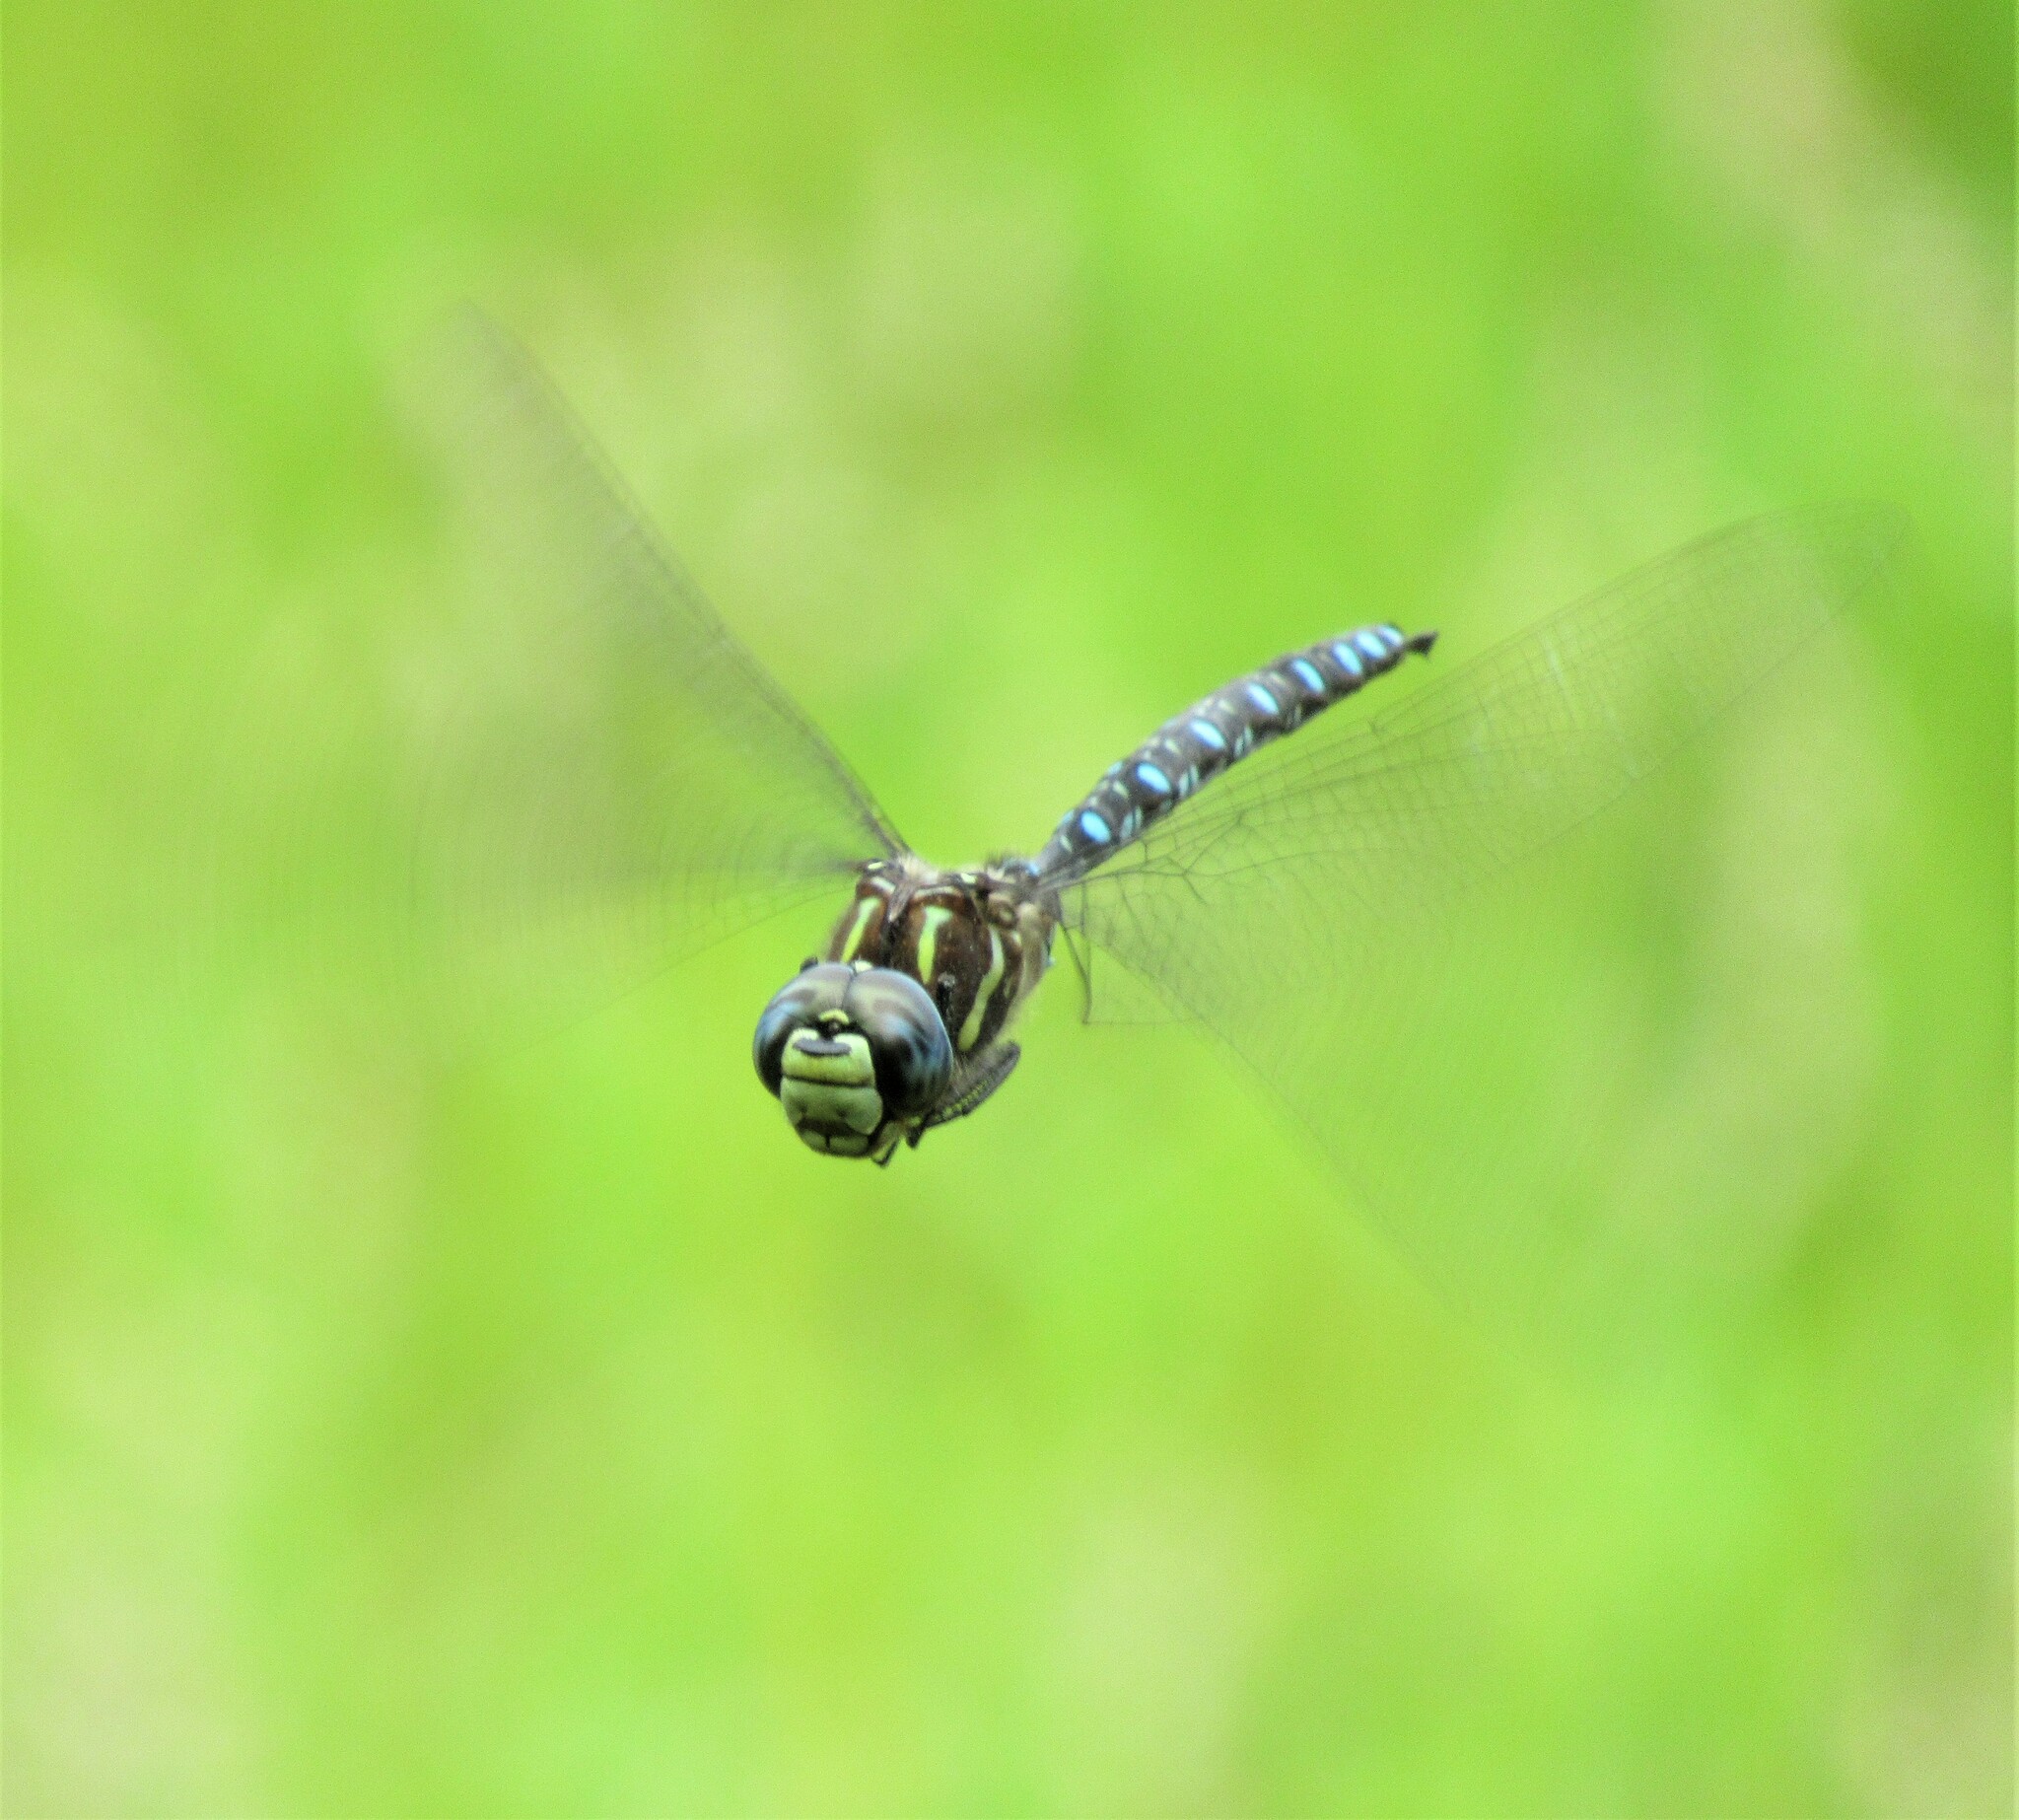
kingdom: Animalia
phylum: Arthropoda
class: Insecta
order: Odonata
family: Aeshnidae
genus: Aeshna
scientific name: Aeshna palmata
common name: Paddle-tailed darner
